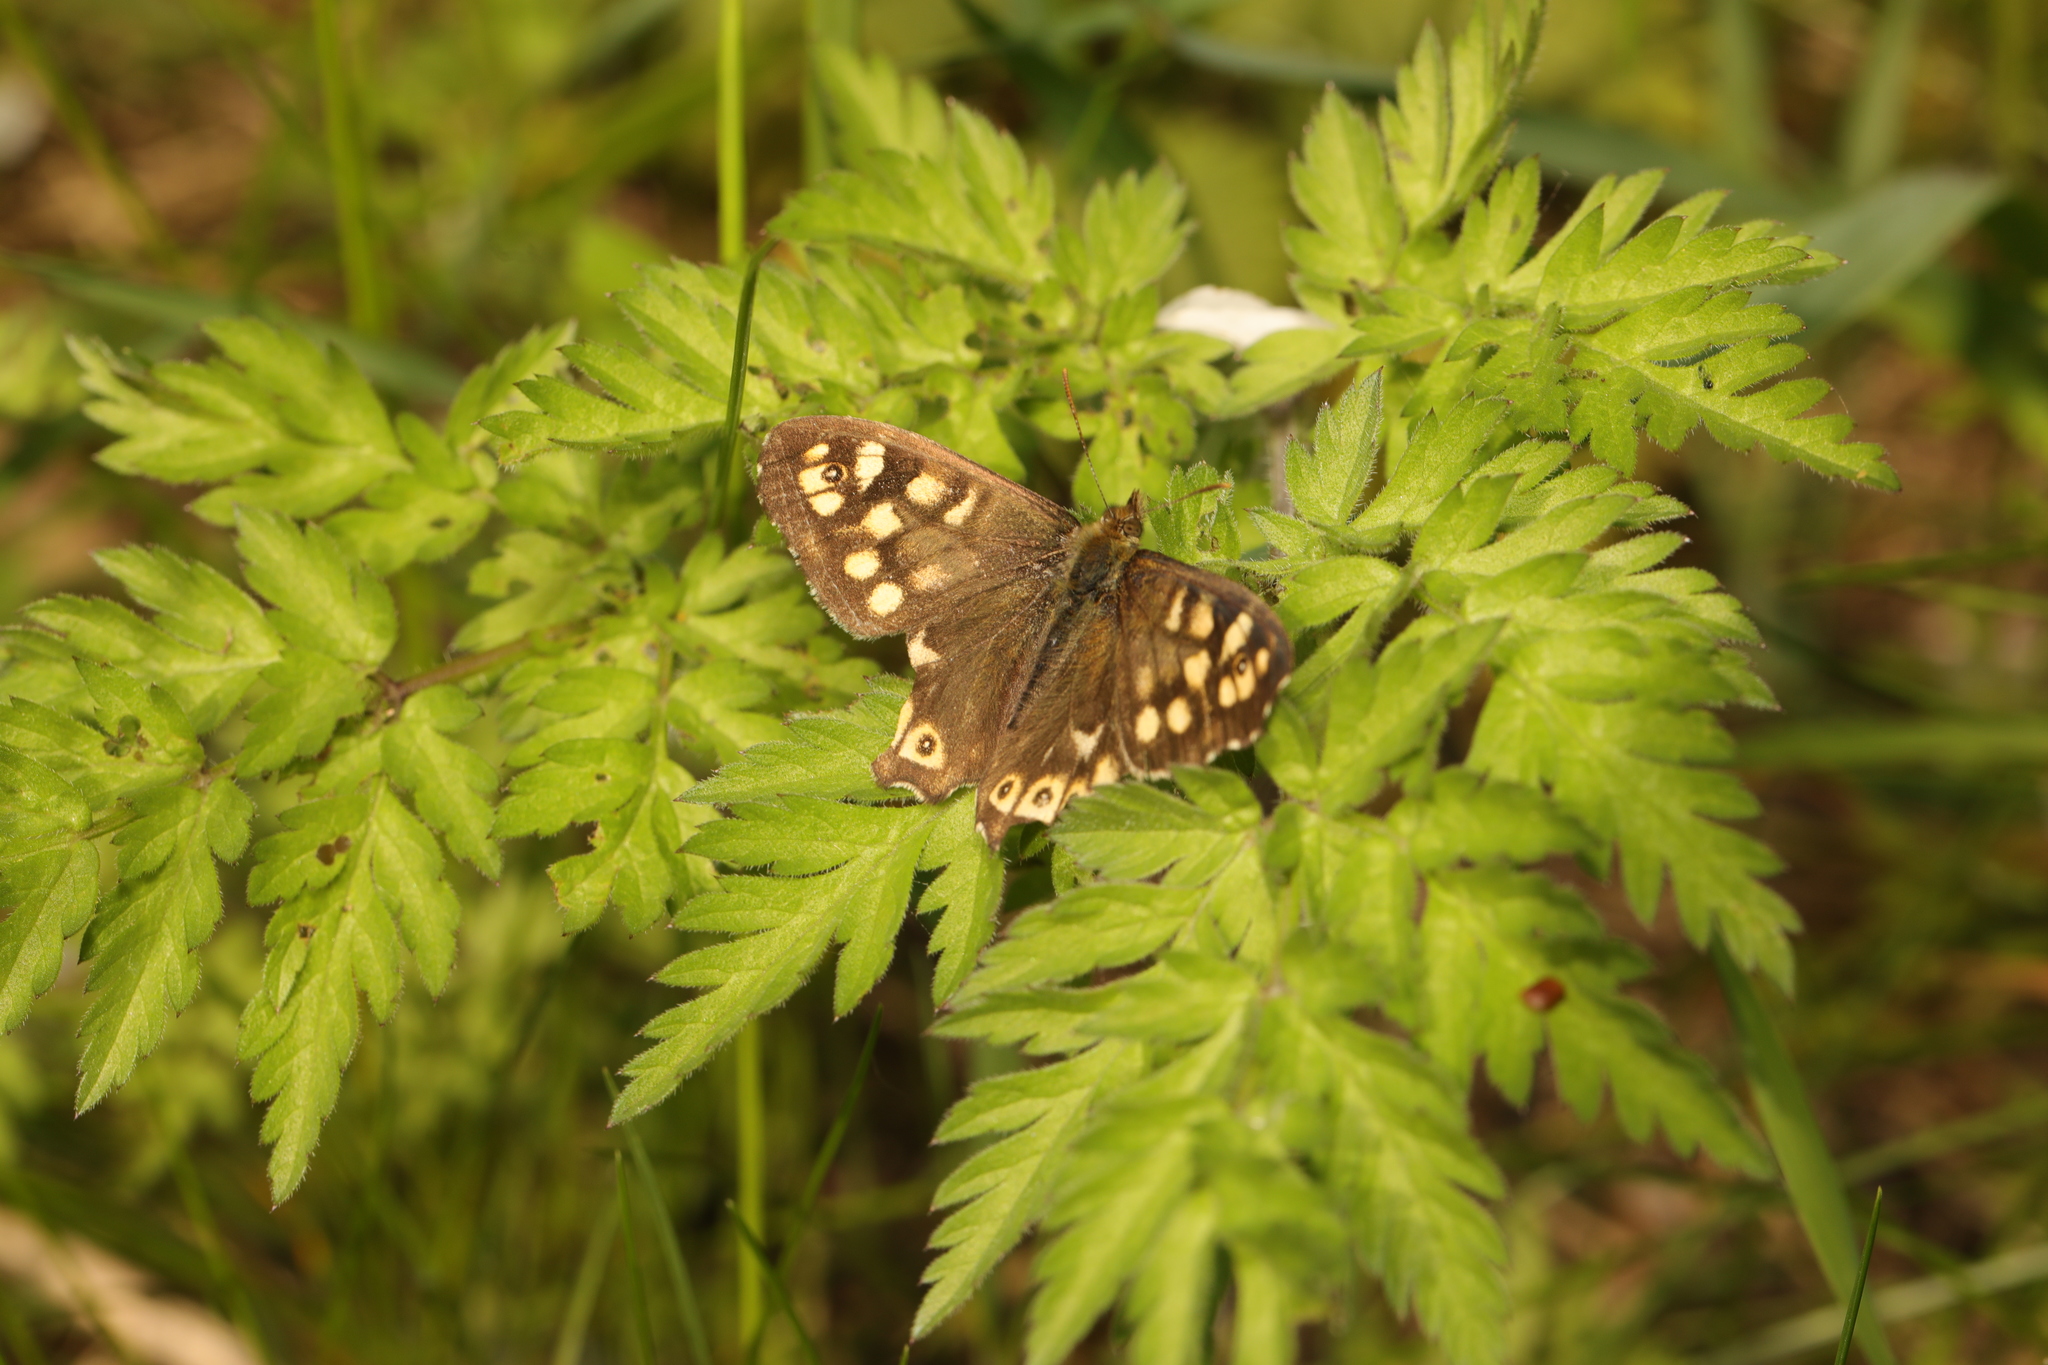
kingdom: Animalia
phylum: Arthropoda
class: Insecta
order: Lepidoptera
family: Nymphalidae
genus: Pararge
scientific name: Pararge aegeria
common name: Speckled wood
